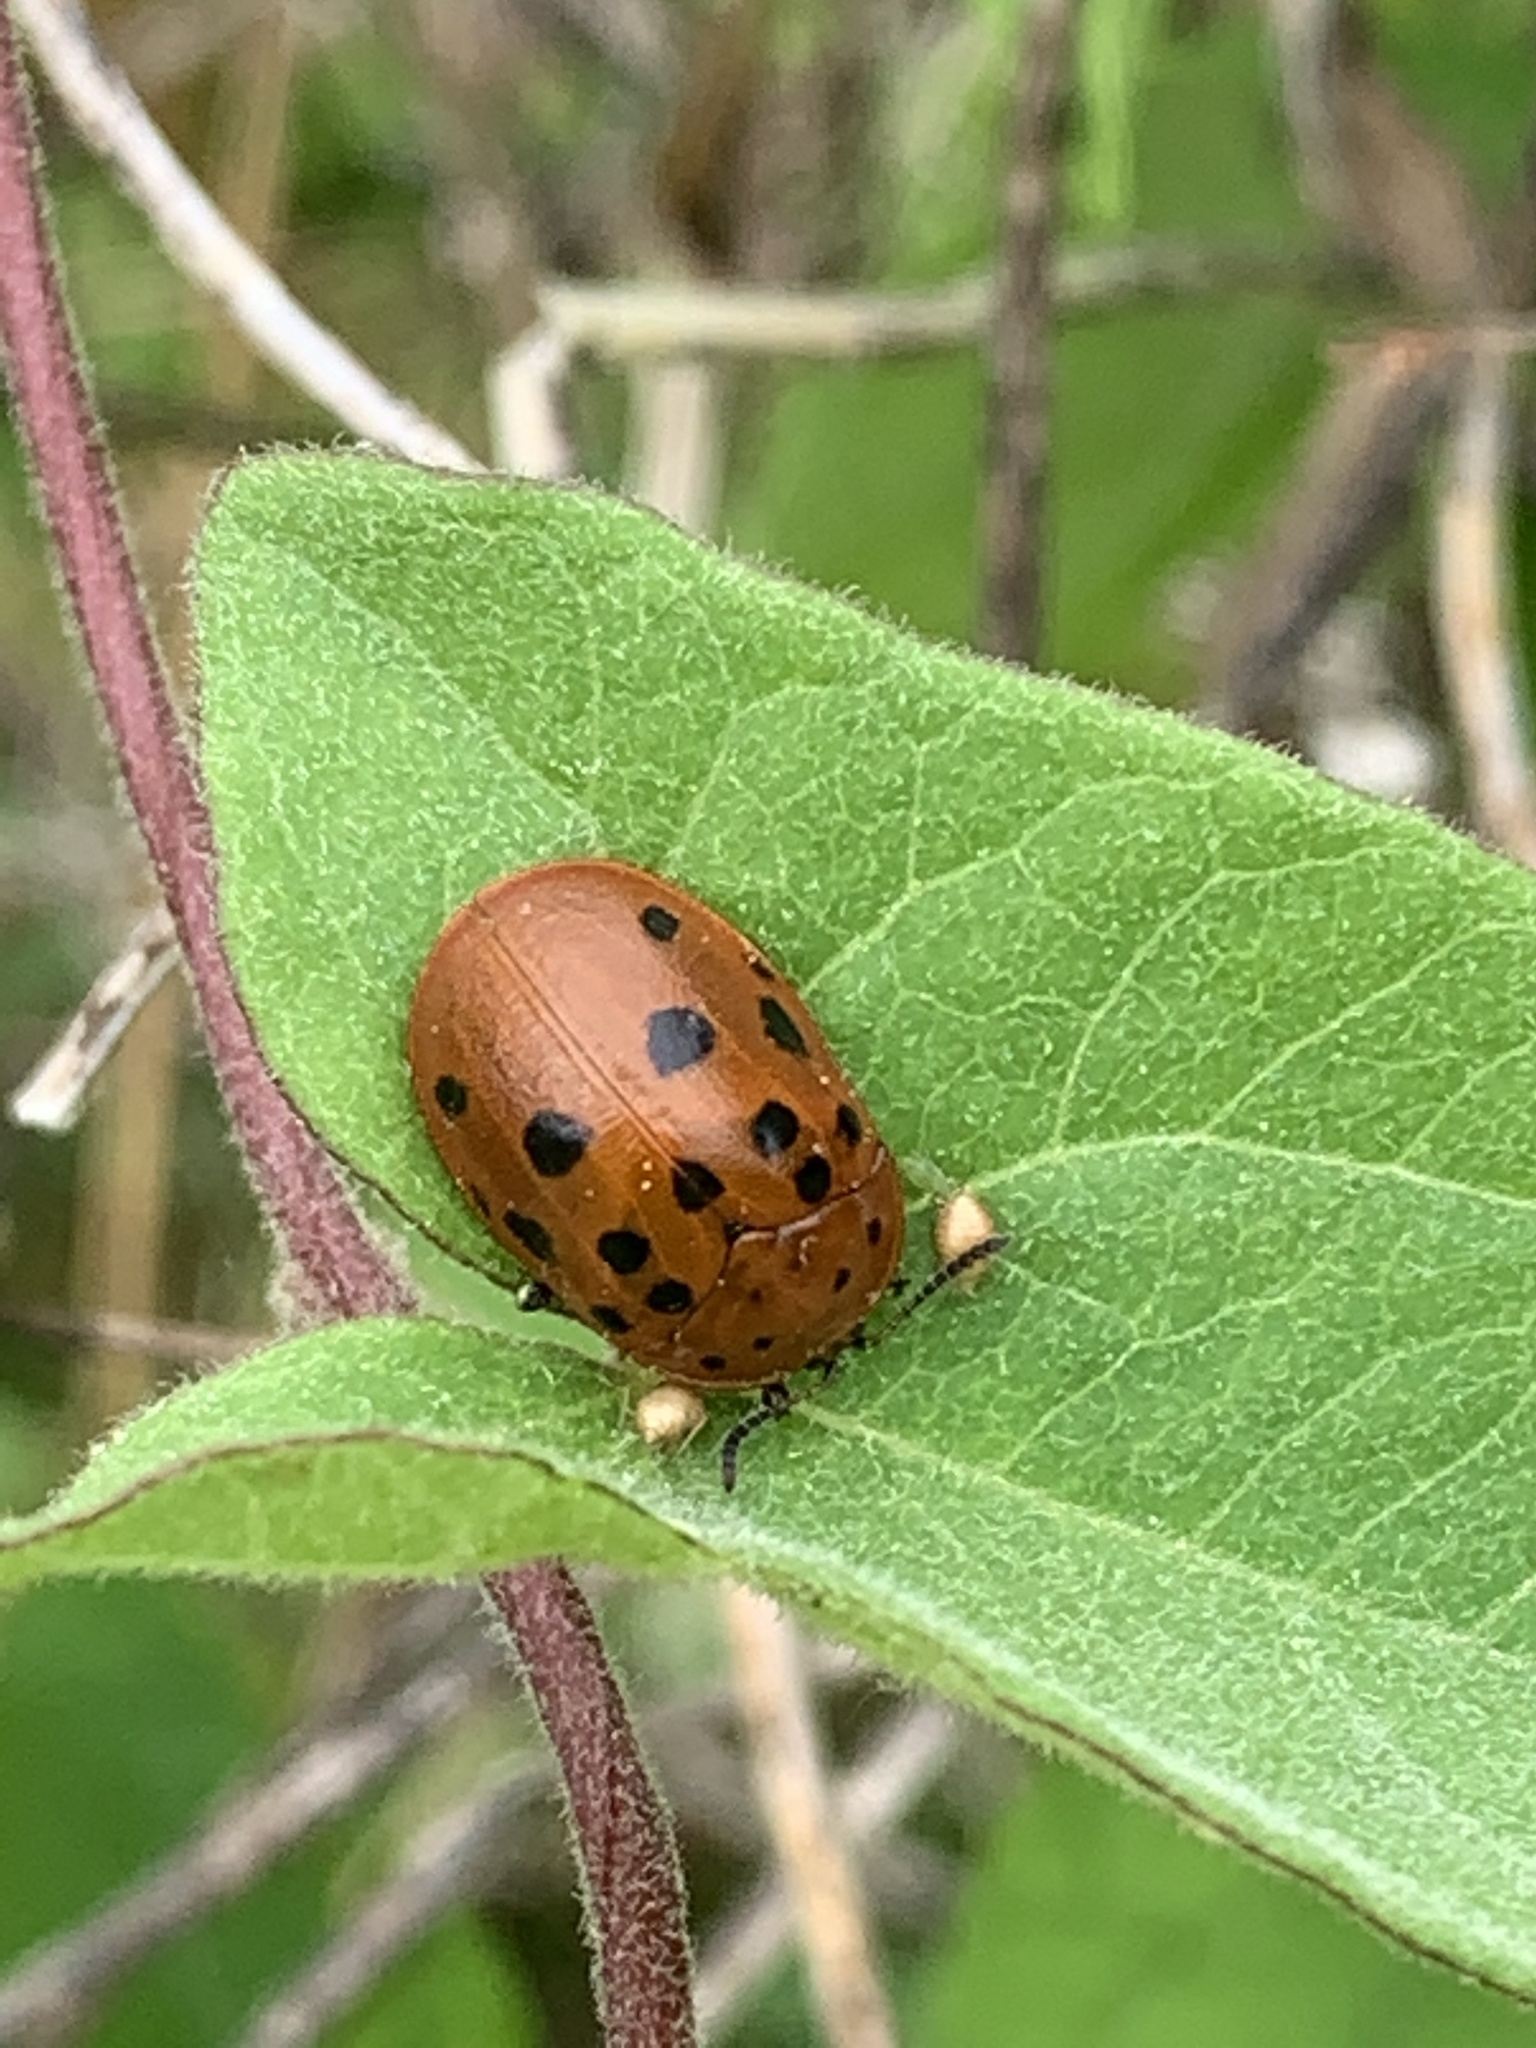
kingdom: Animalia
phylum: Arthropoda
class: Insecta
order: Coleoptera
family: Chrysomelidae
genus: Chelymorpha
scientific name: Chelymorpha cassidea
